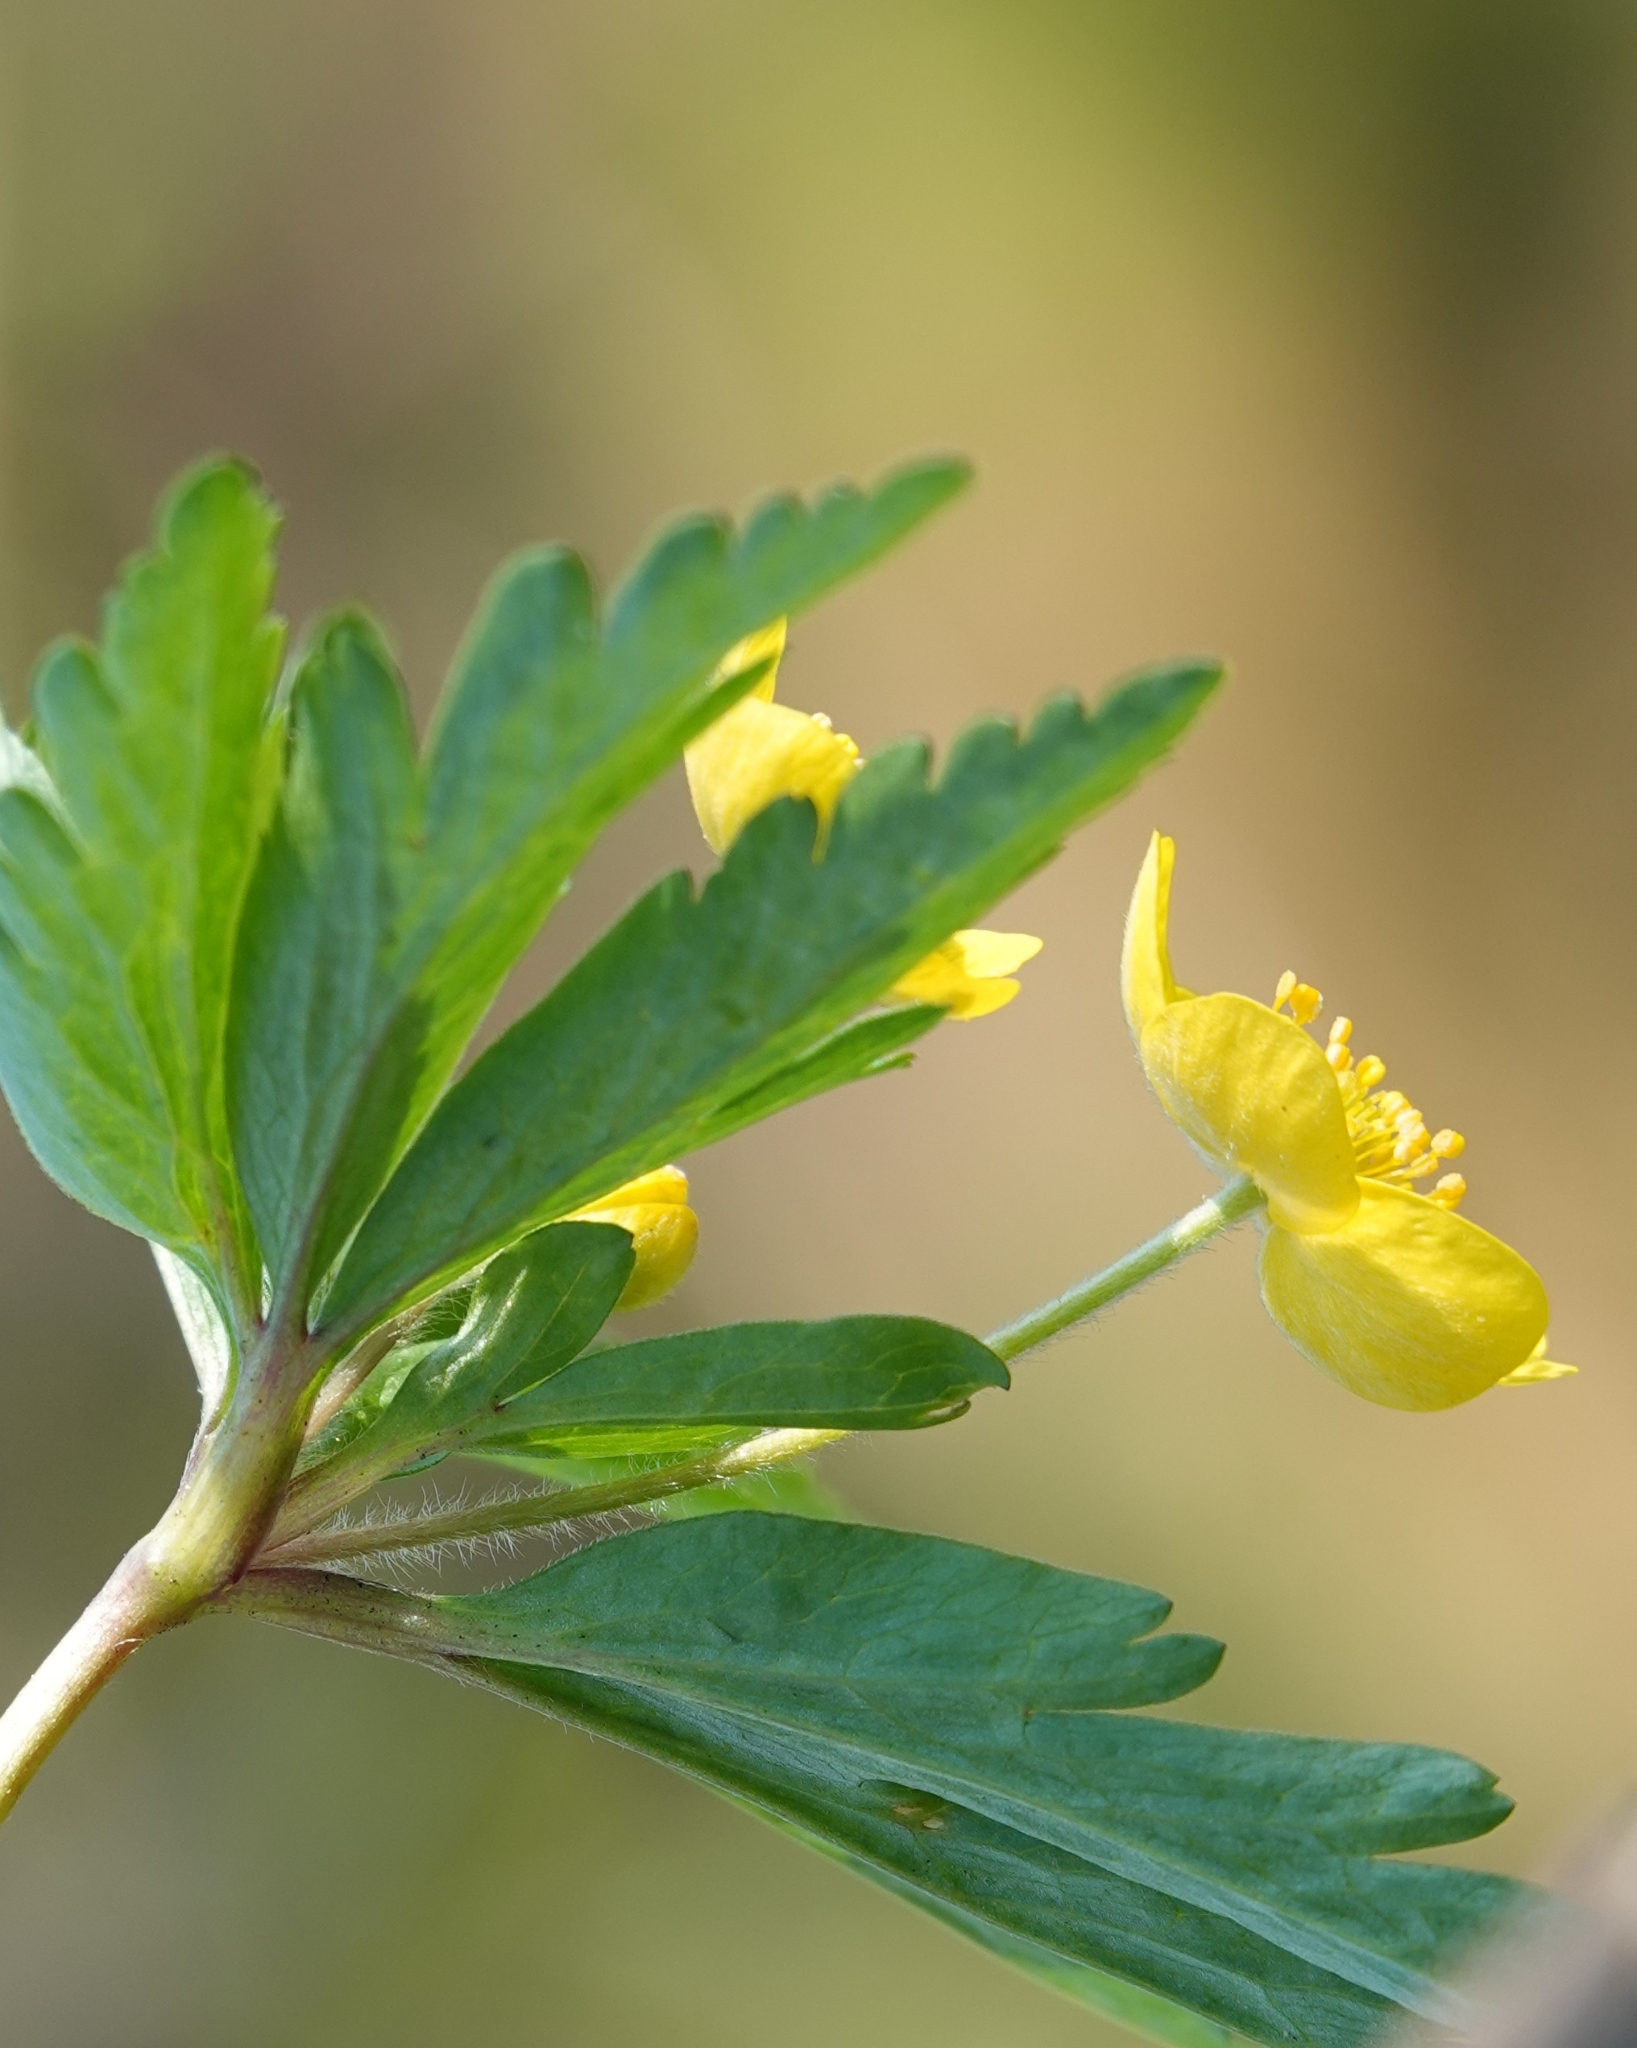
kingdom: Plantae
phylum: Tracheophyta
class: Magnoliopsida
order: Ranunculales
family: Ranunculaceae
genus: Anemone
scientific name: Anemone ranunculoides
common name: Yellow anemone
